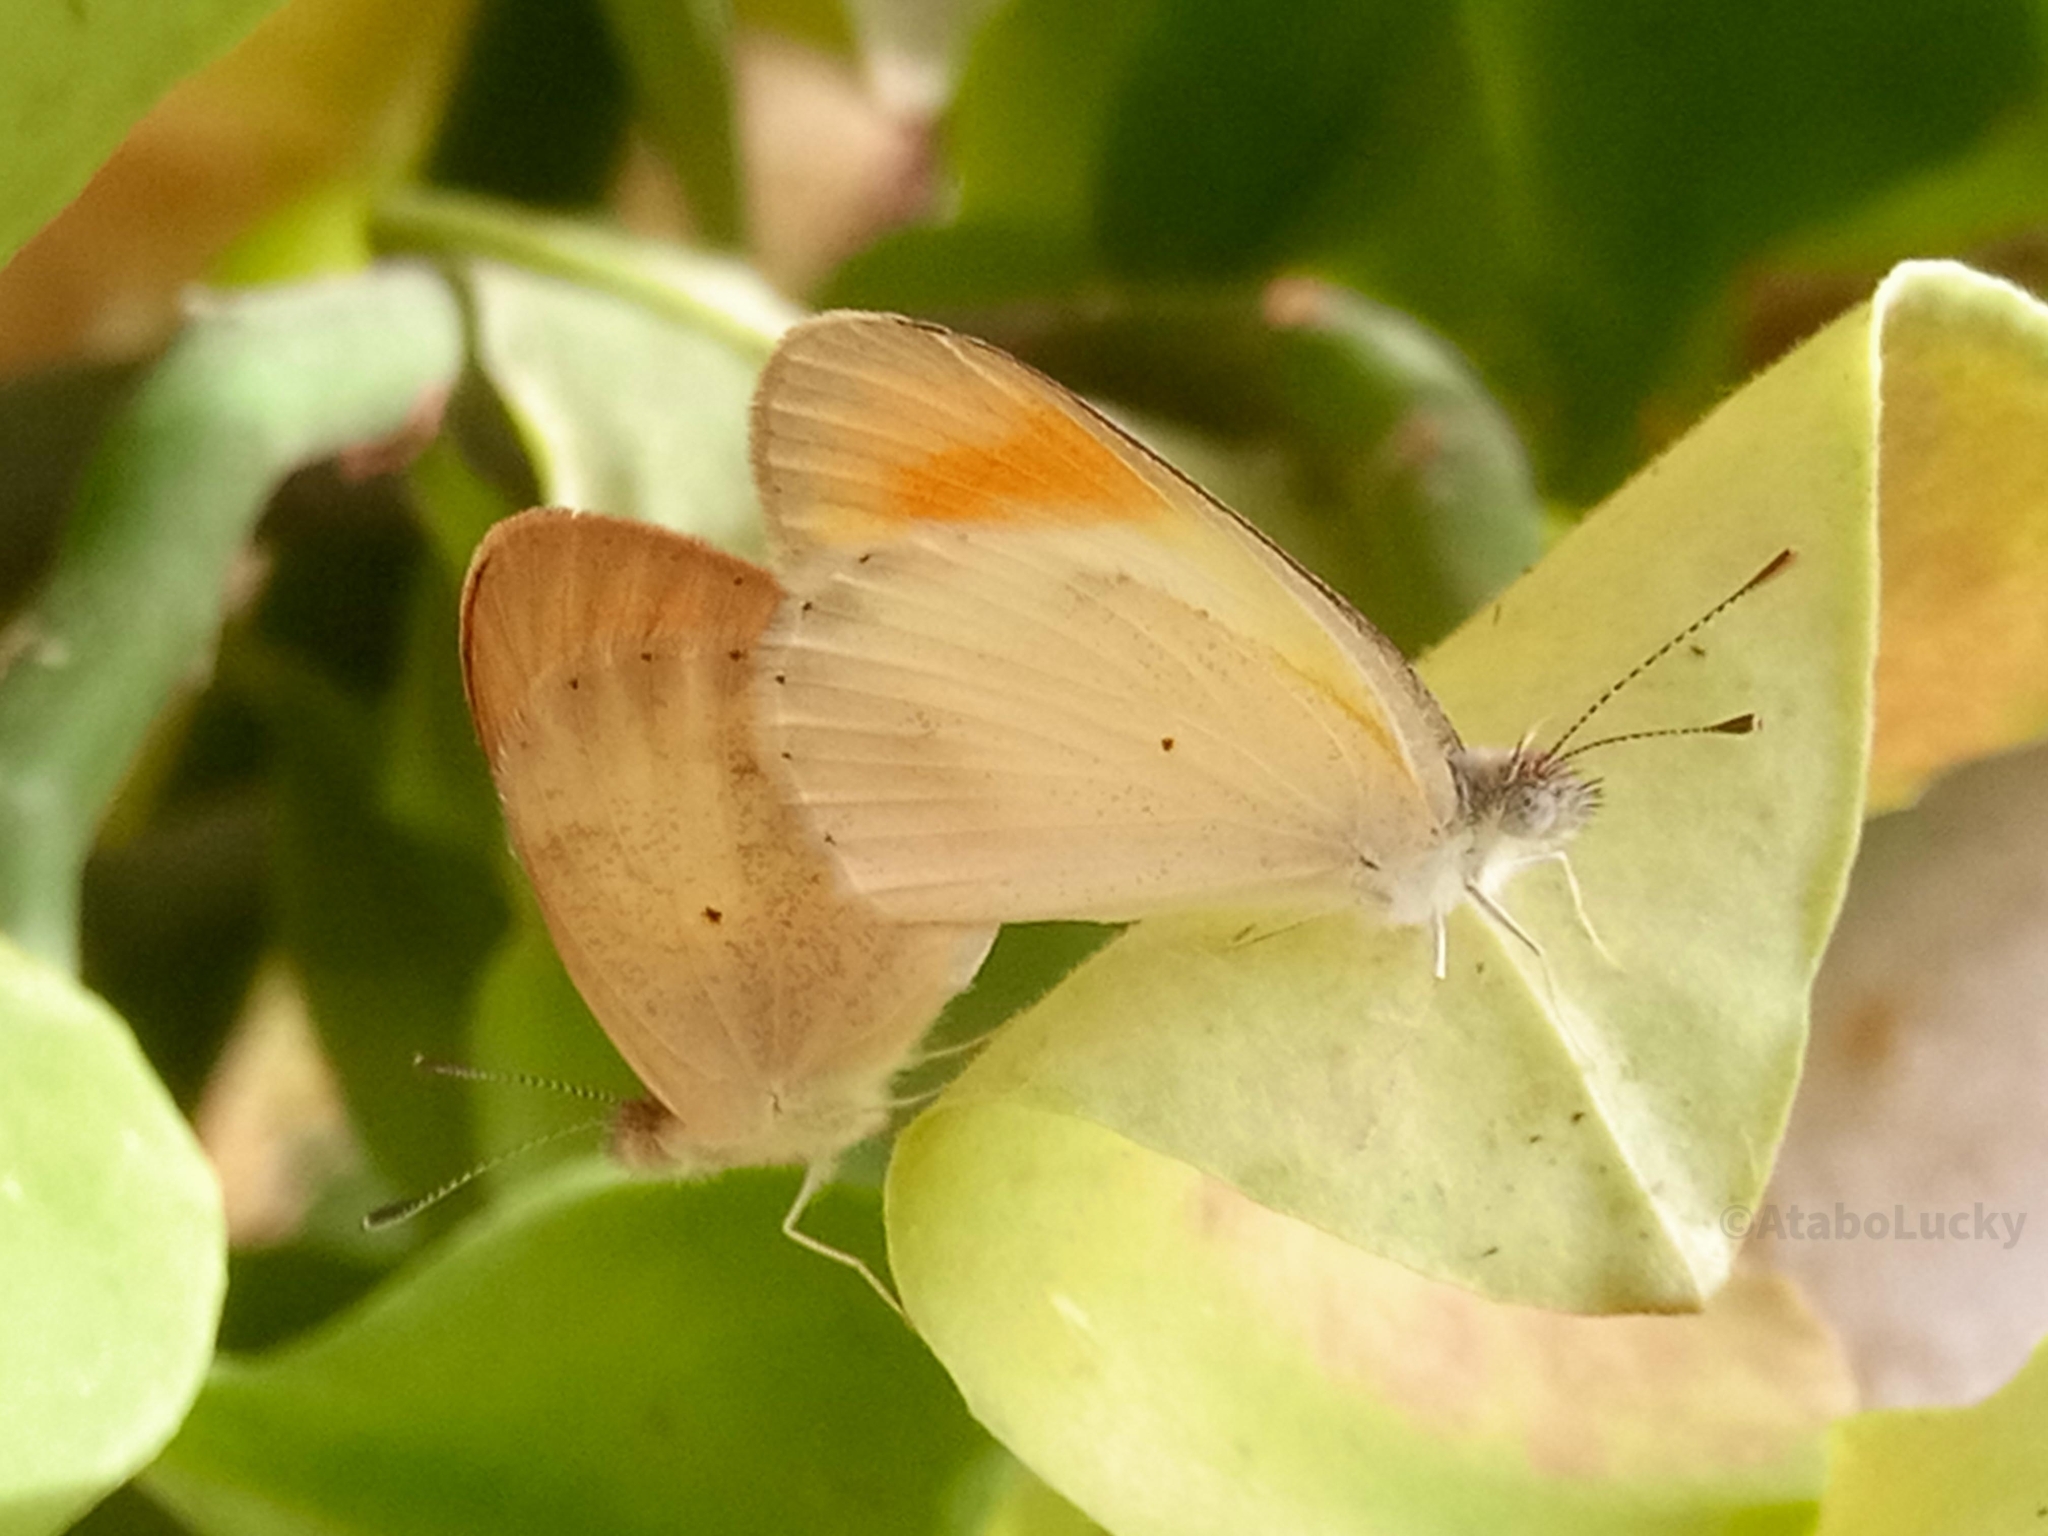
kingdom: Animalia
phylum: Arthropoda
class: Insecta
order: Lepidoptera
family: Pieridae
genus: Colotis
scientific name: Colotis evagore
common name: Desert orange-tip
